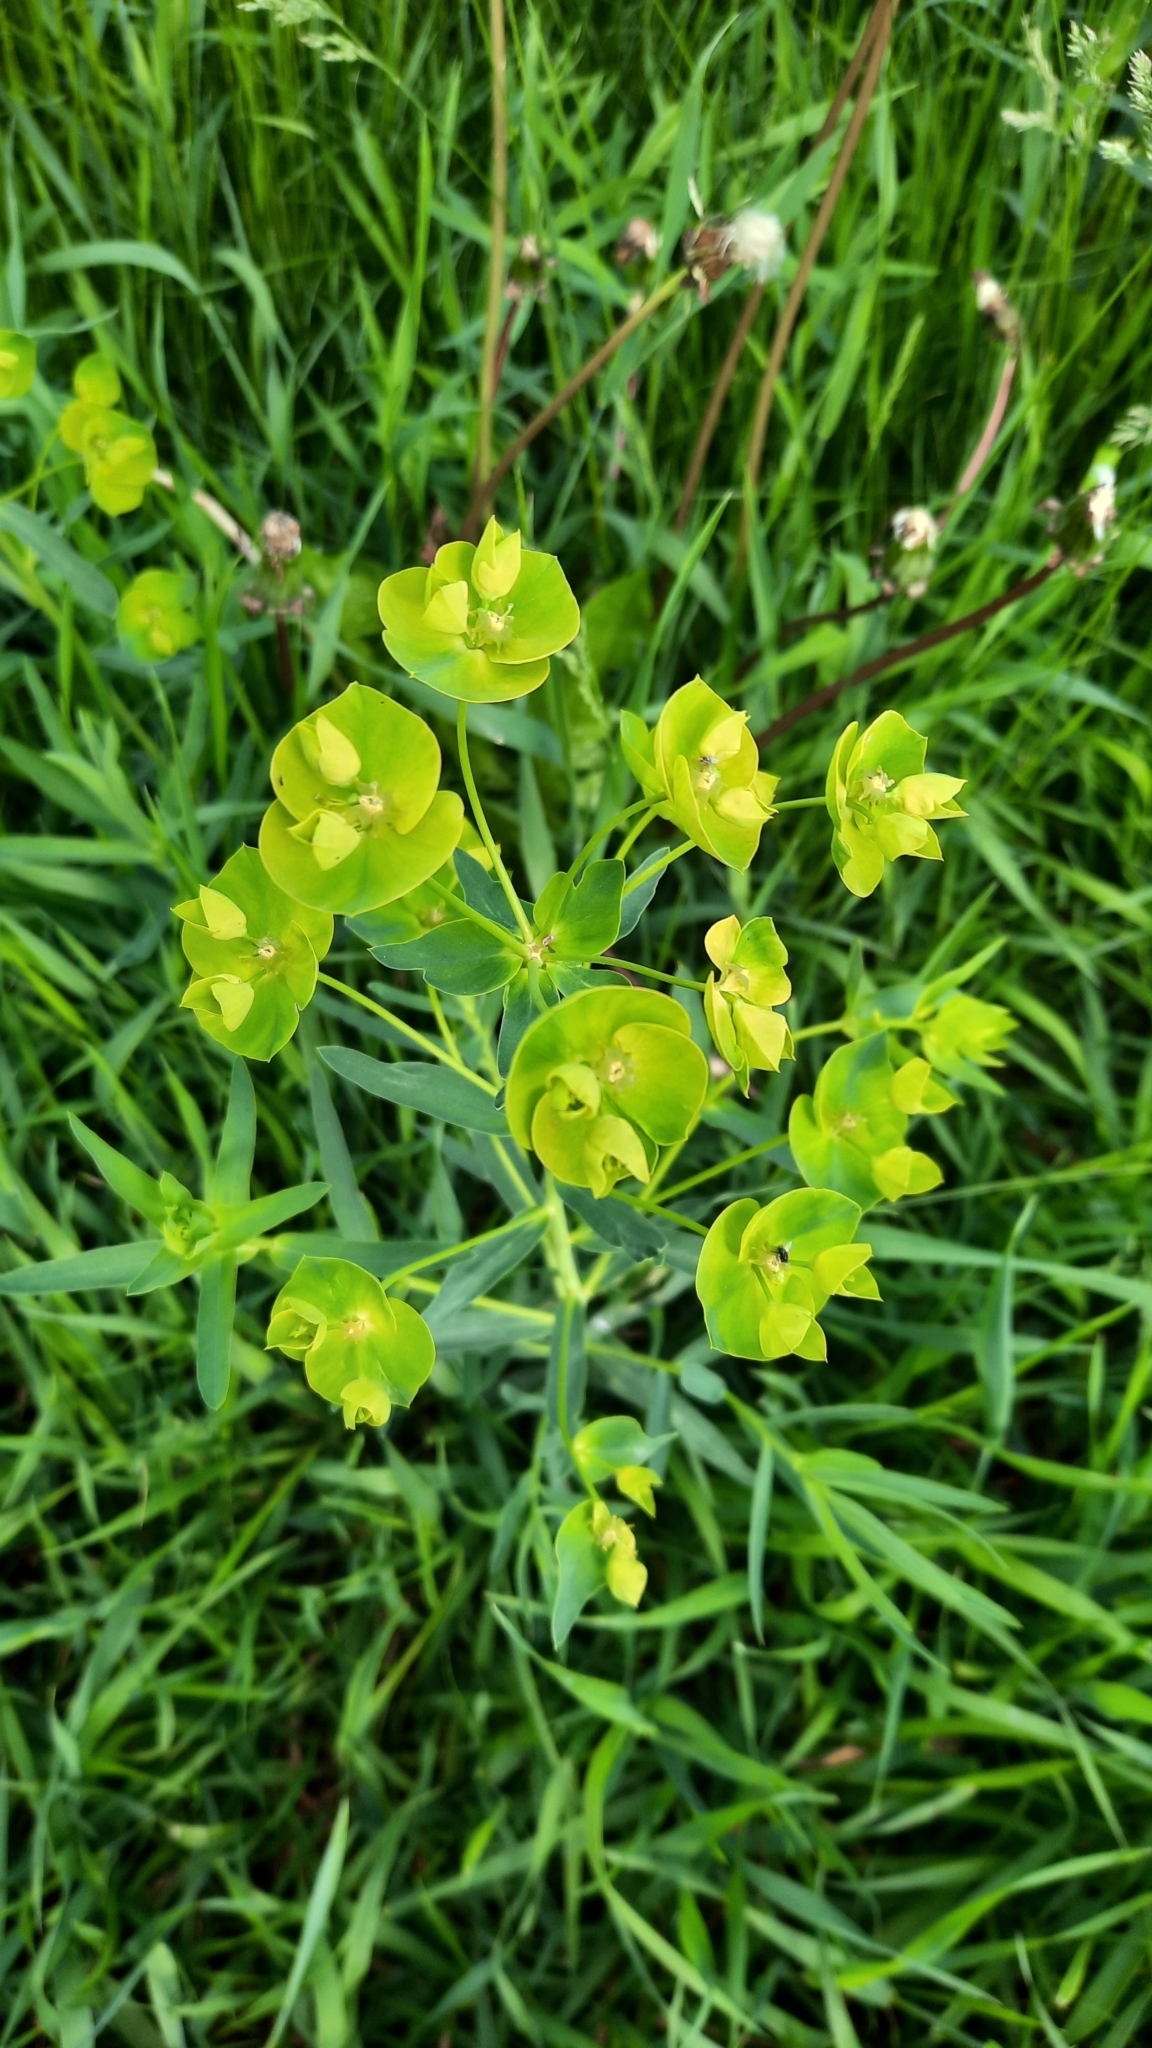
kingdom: Plantae
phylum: Tracheophyta
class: Magnoliopsida
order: Malpighiales
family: Euphorbiaceae
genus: Euphorbia
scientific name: Euphorbia virgata
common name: Leafy spurge
